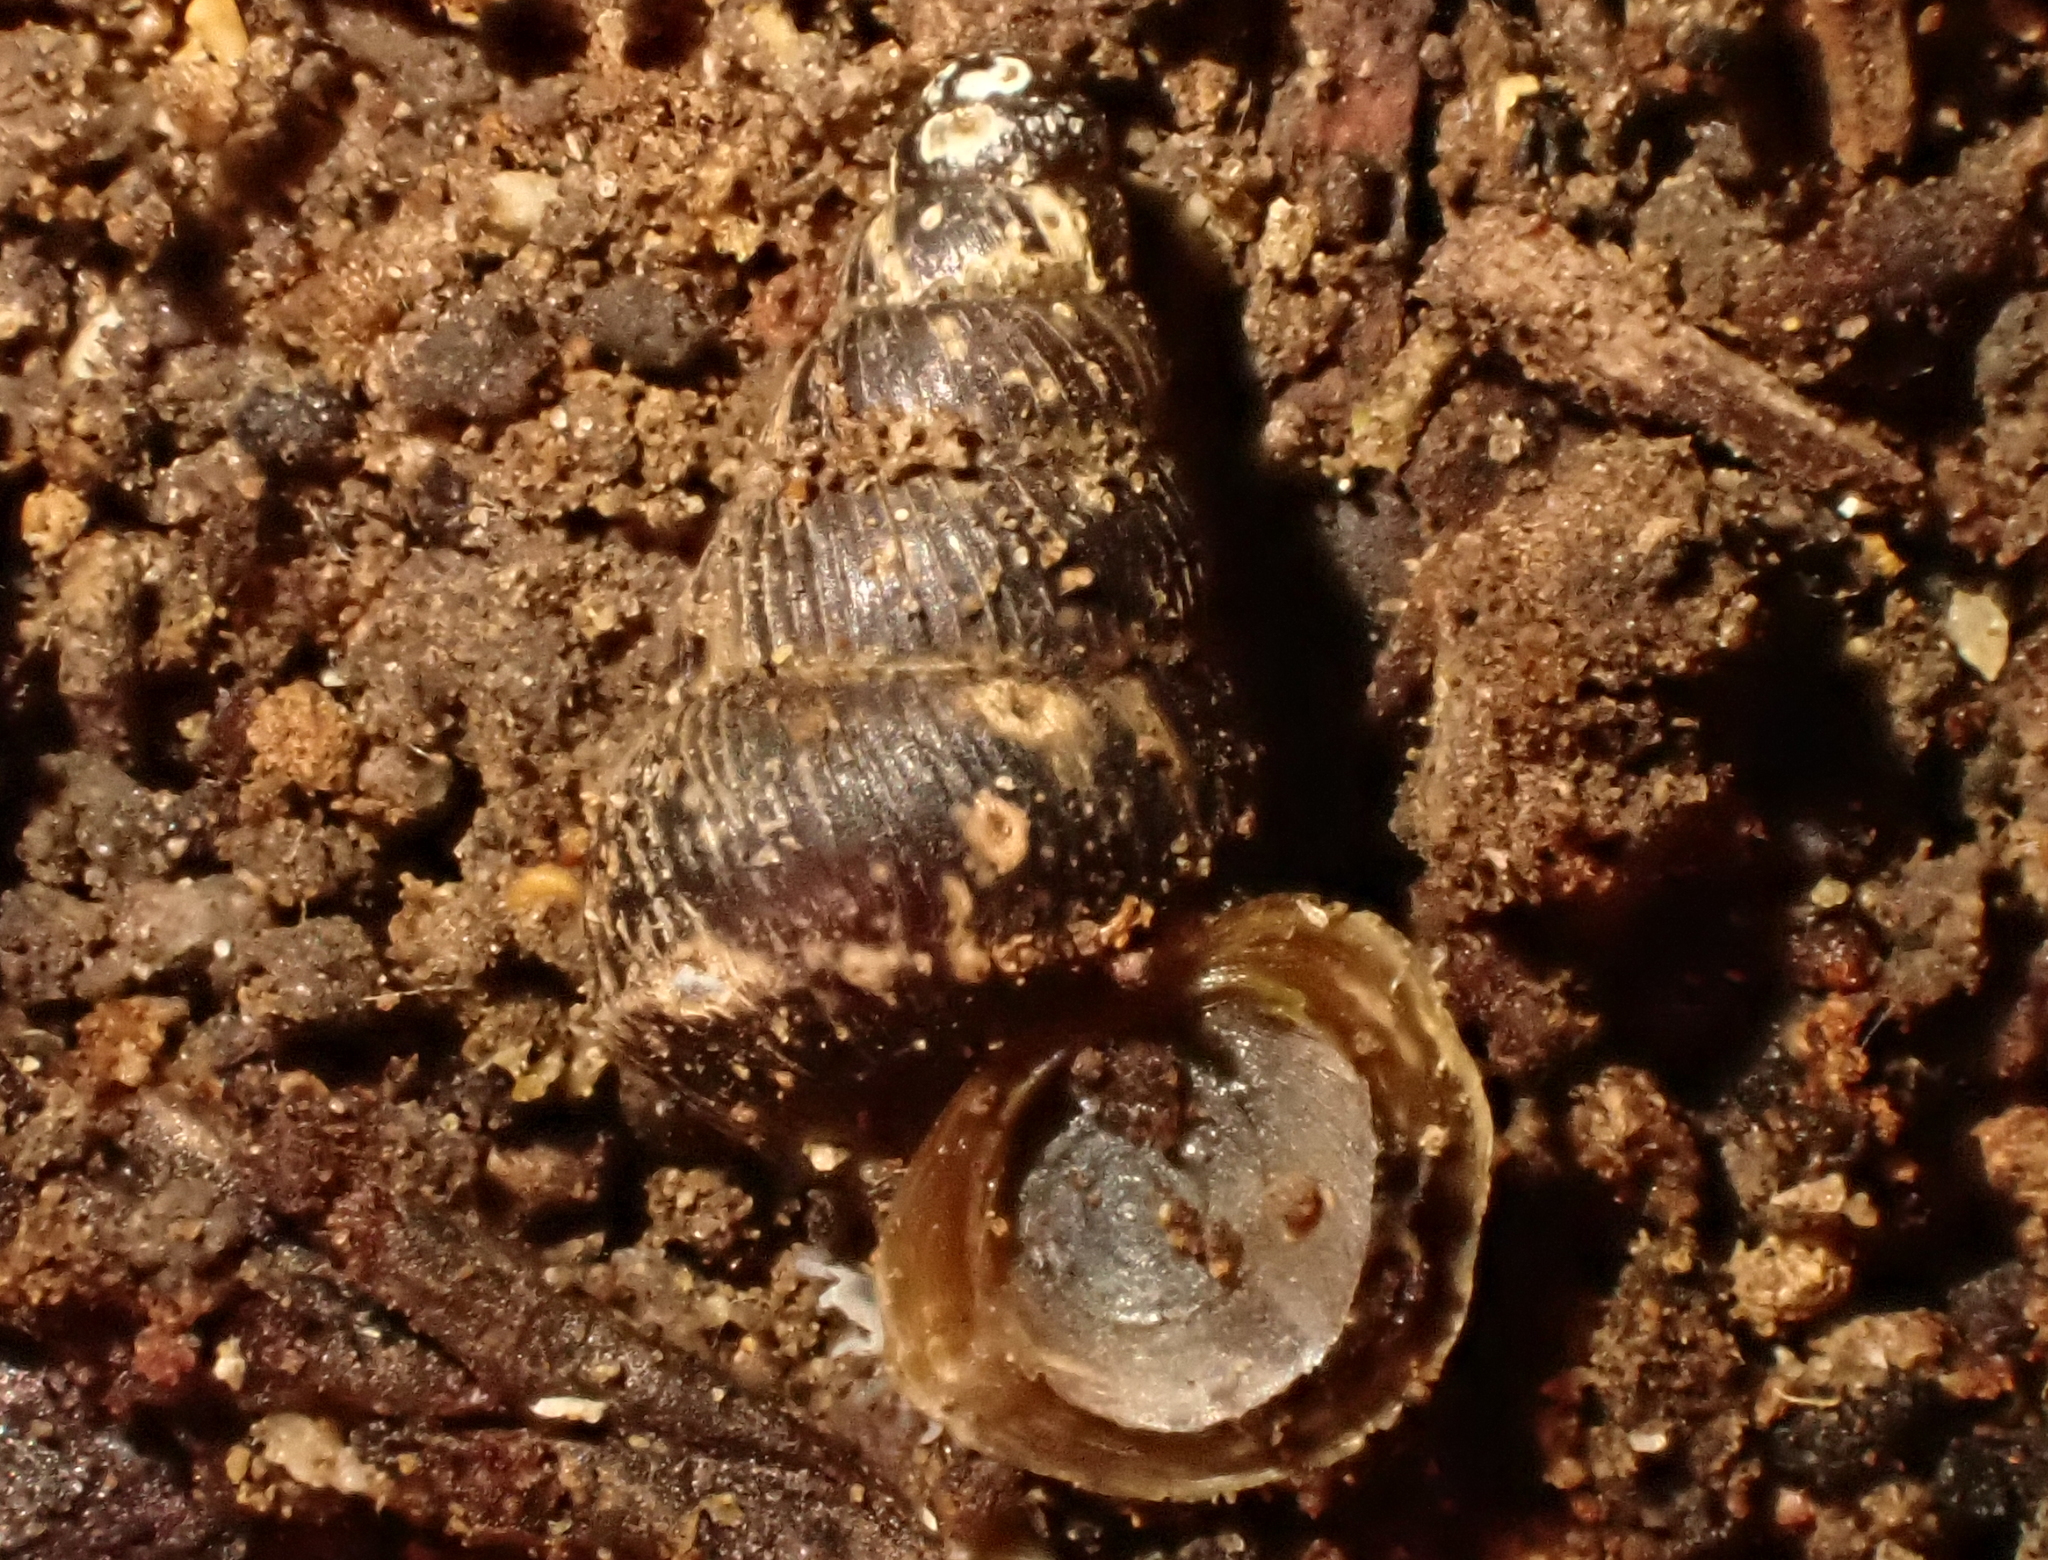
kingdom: Animalia
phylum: Mollusca
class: Gastropoda
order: Architaenioglossa
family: Pupinidae
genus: Liarea
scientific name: Liarea hochstetteri
